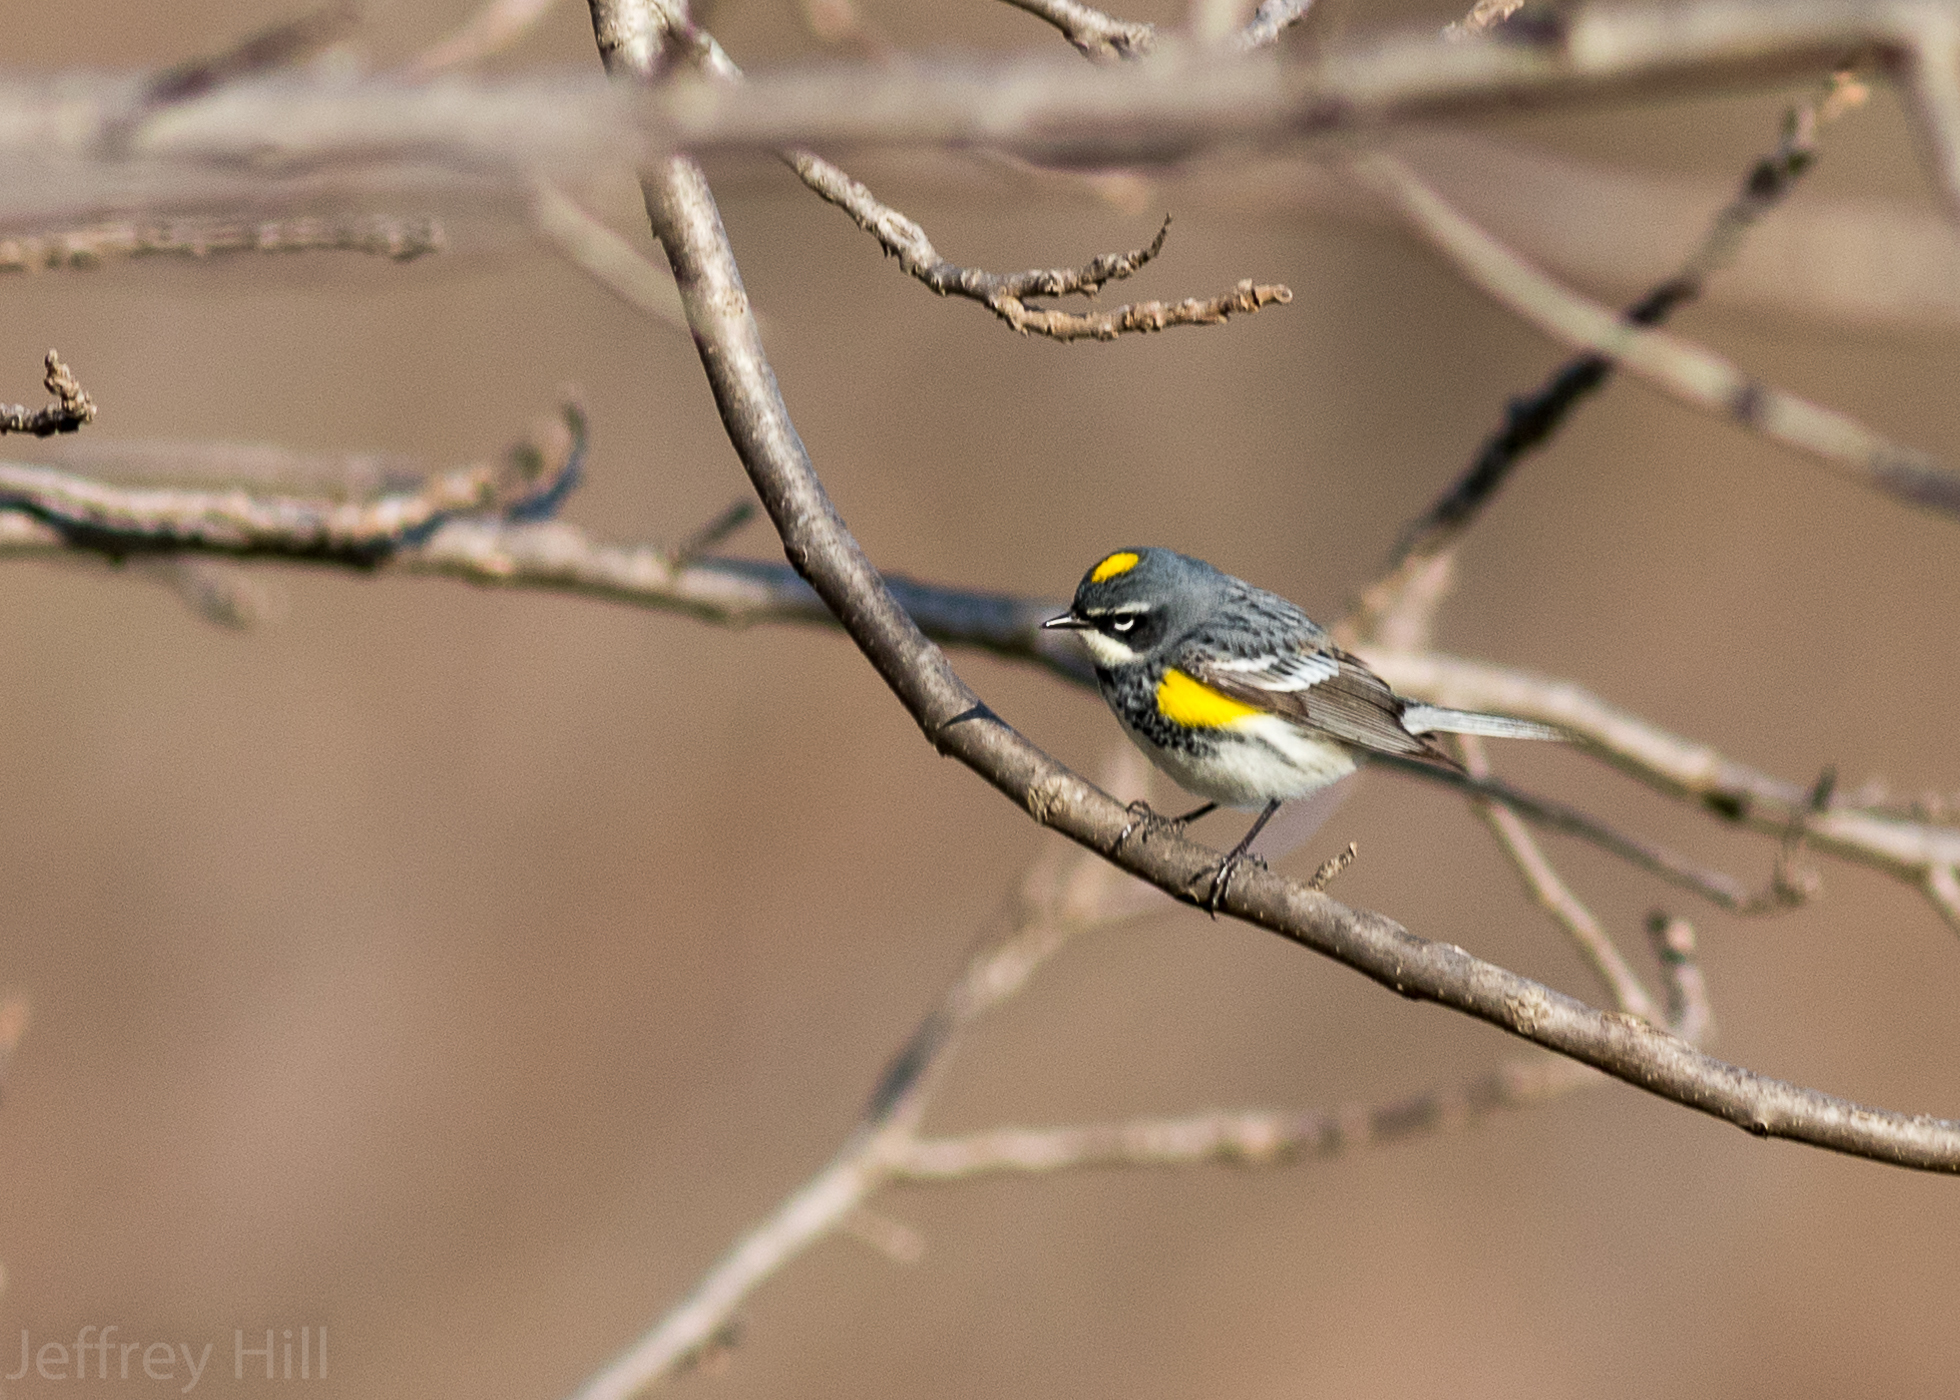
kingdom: Animalia
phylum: Chordata
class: Aves
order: Passeriformes
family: Parulidae
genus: Setophaga
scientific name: Setophaga coronata
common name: Myrtle warbler
